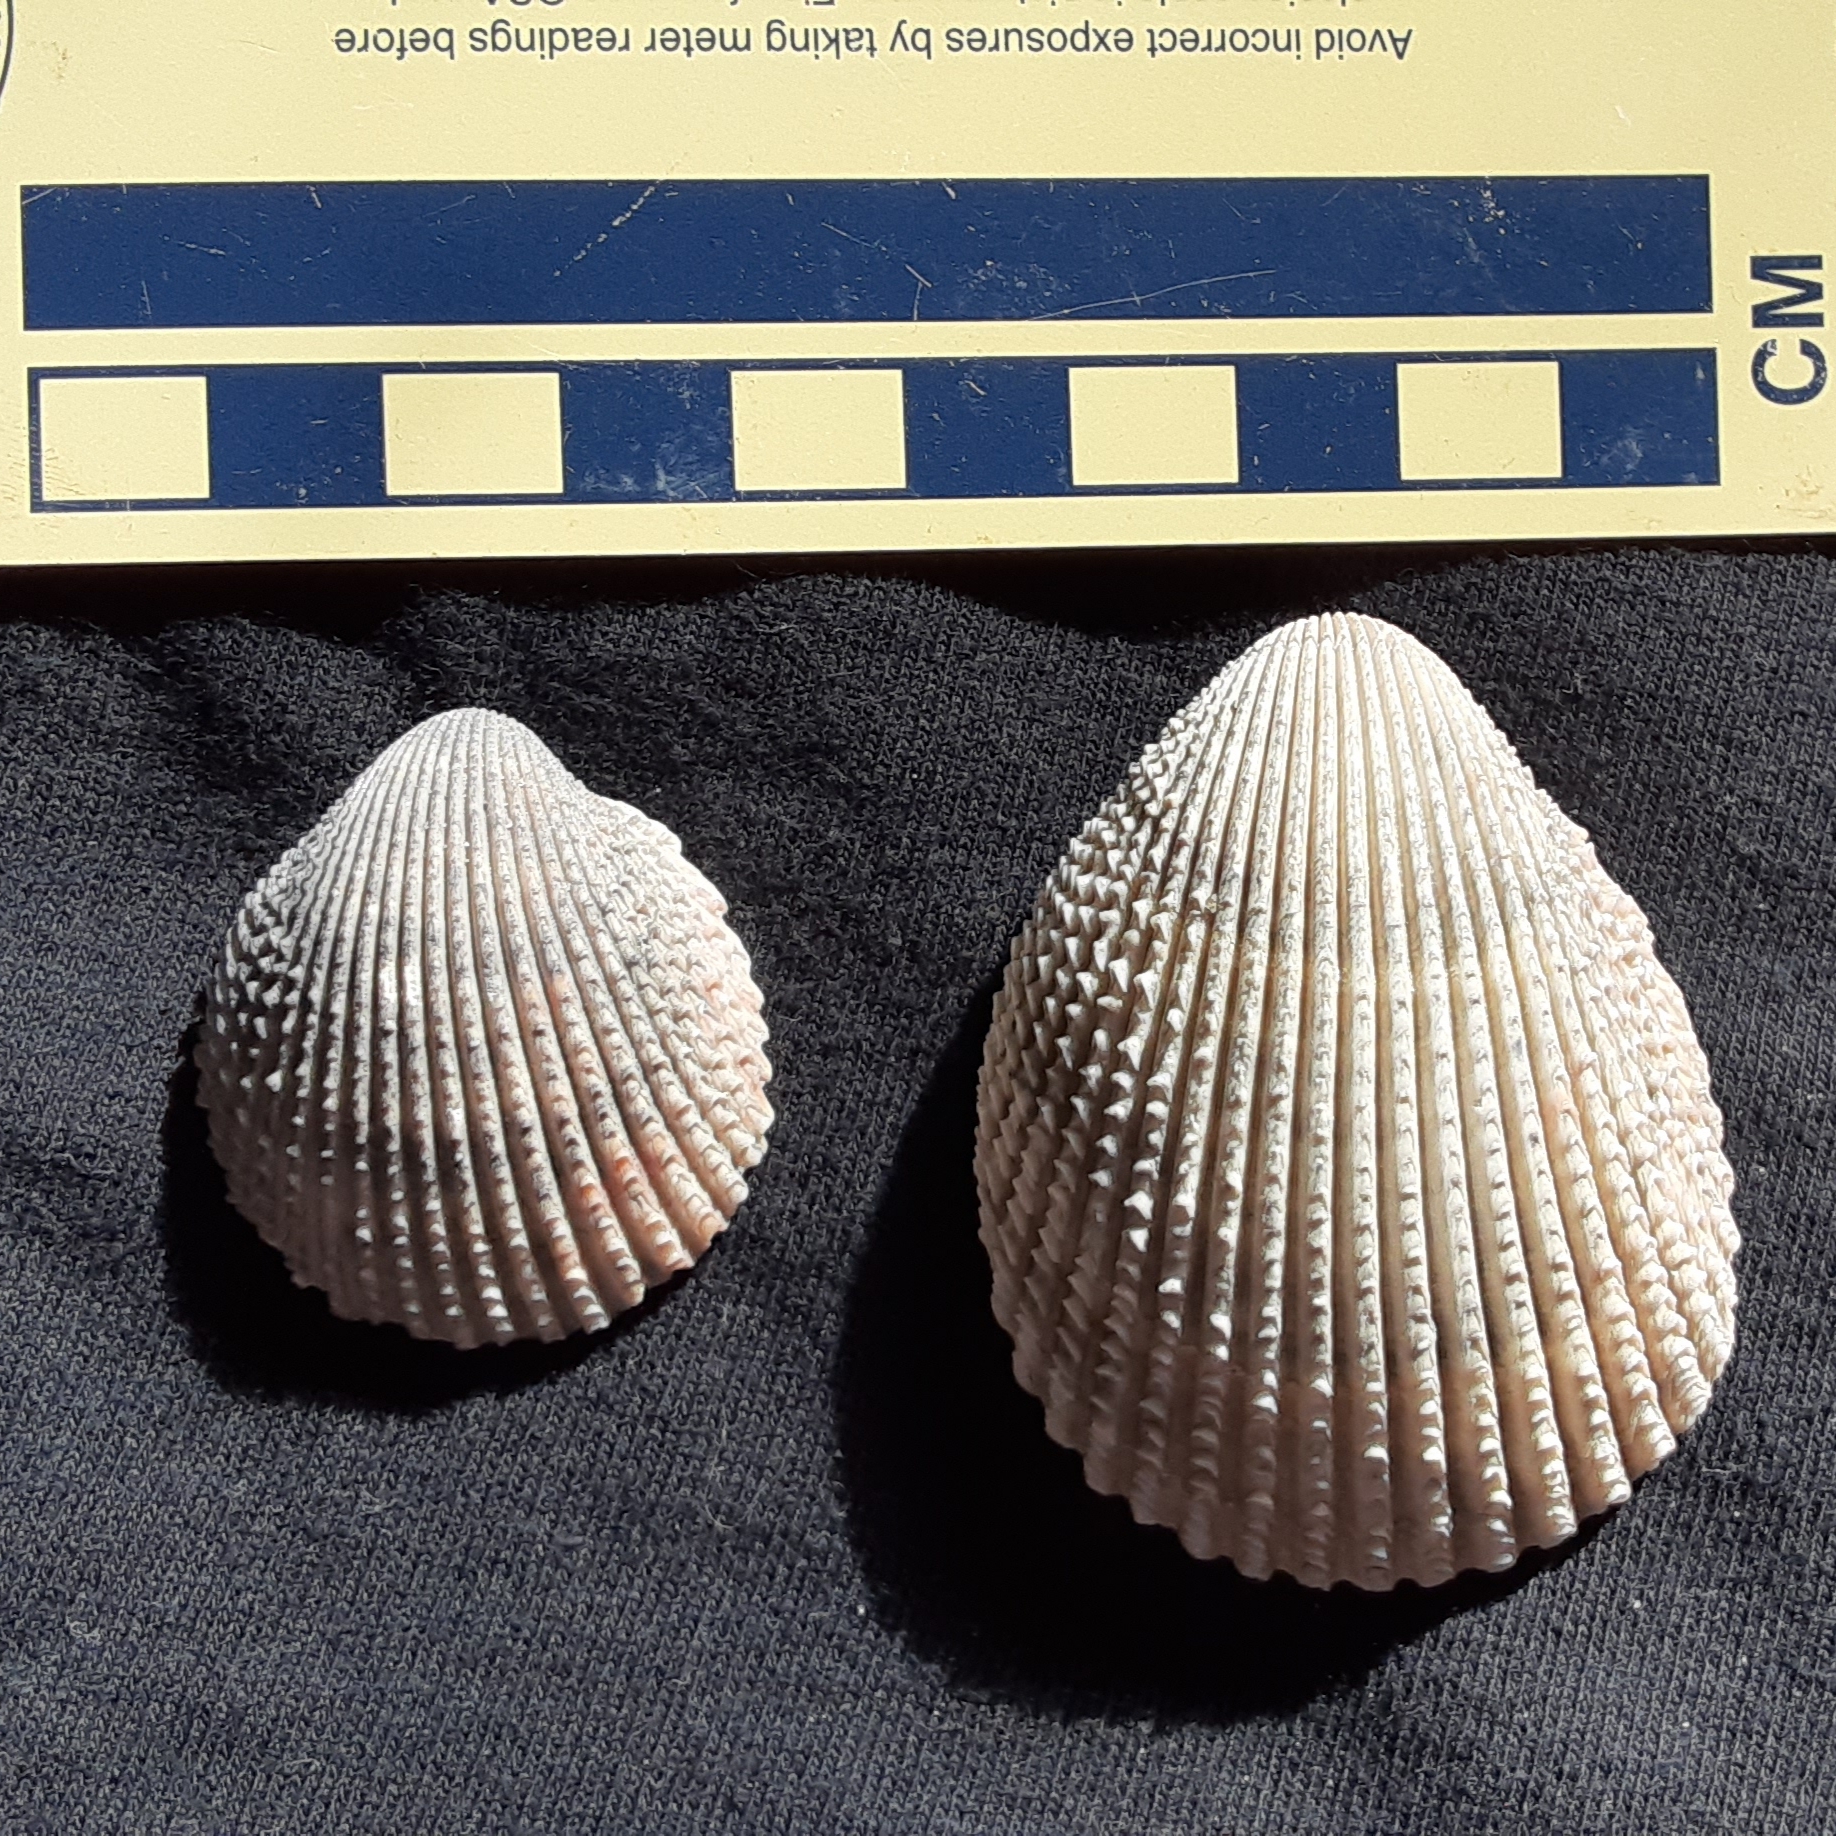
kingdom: Animalia
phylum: Mollusca
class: Bivalvia
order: Cardiida
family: Cardiidae
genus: Dinocardium
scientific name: Dinocardium robustum
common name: Atlantic giant cockle
